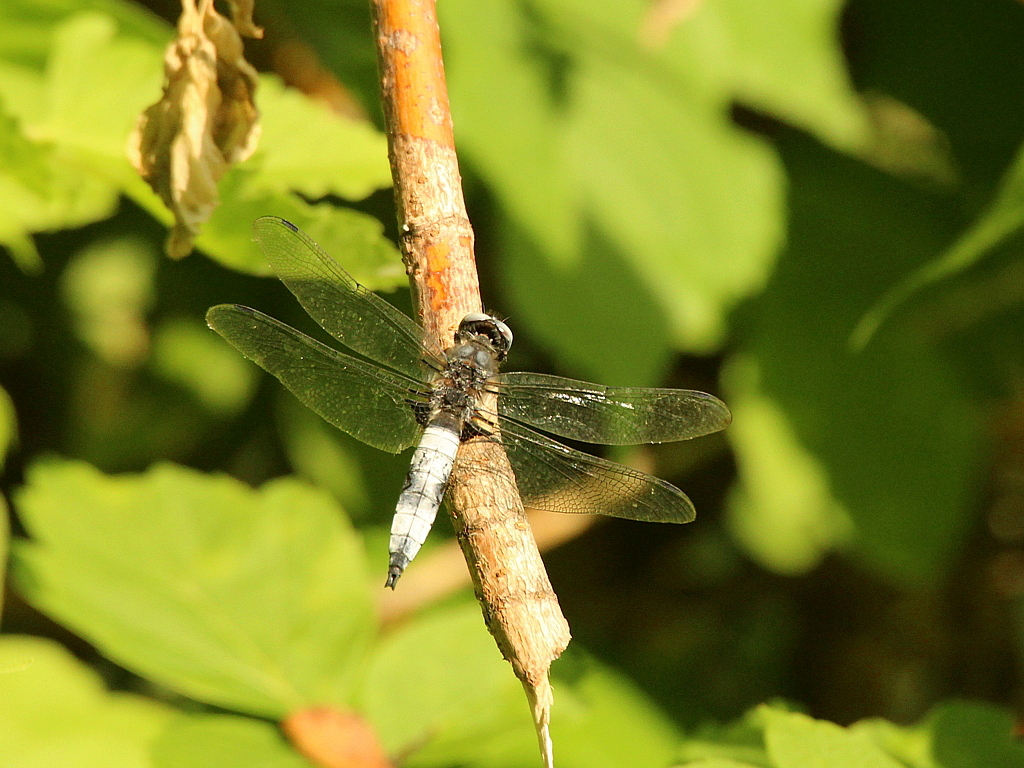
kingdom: Animalia
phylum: Arthropoda
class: Insecta
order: Odonata
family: Libellulidae
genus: Libellula
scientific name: Libellula fulva
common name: Blue chaser
